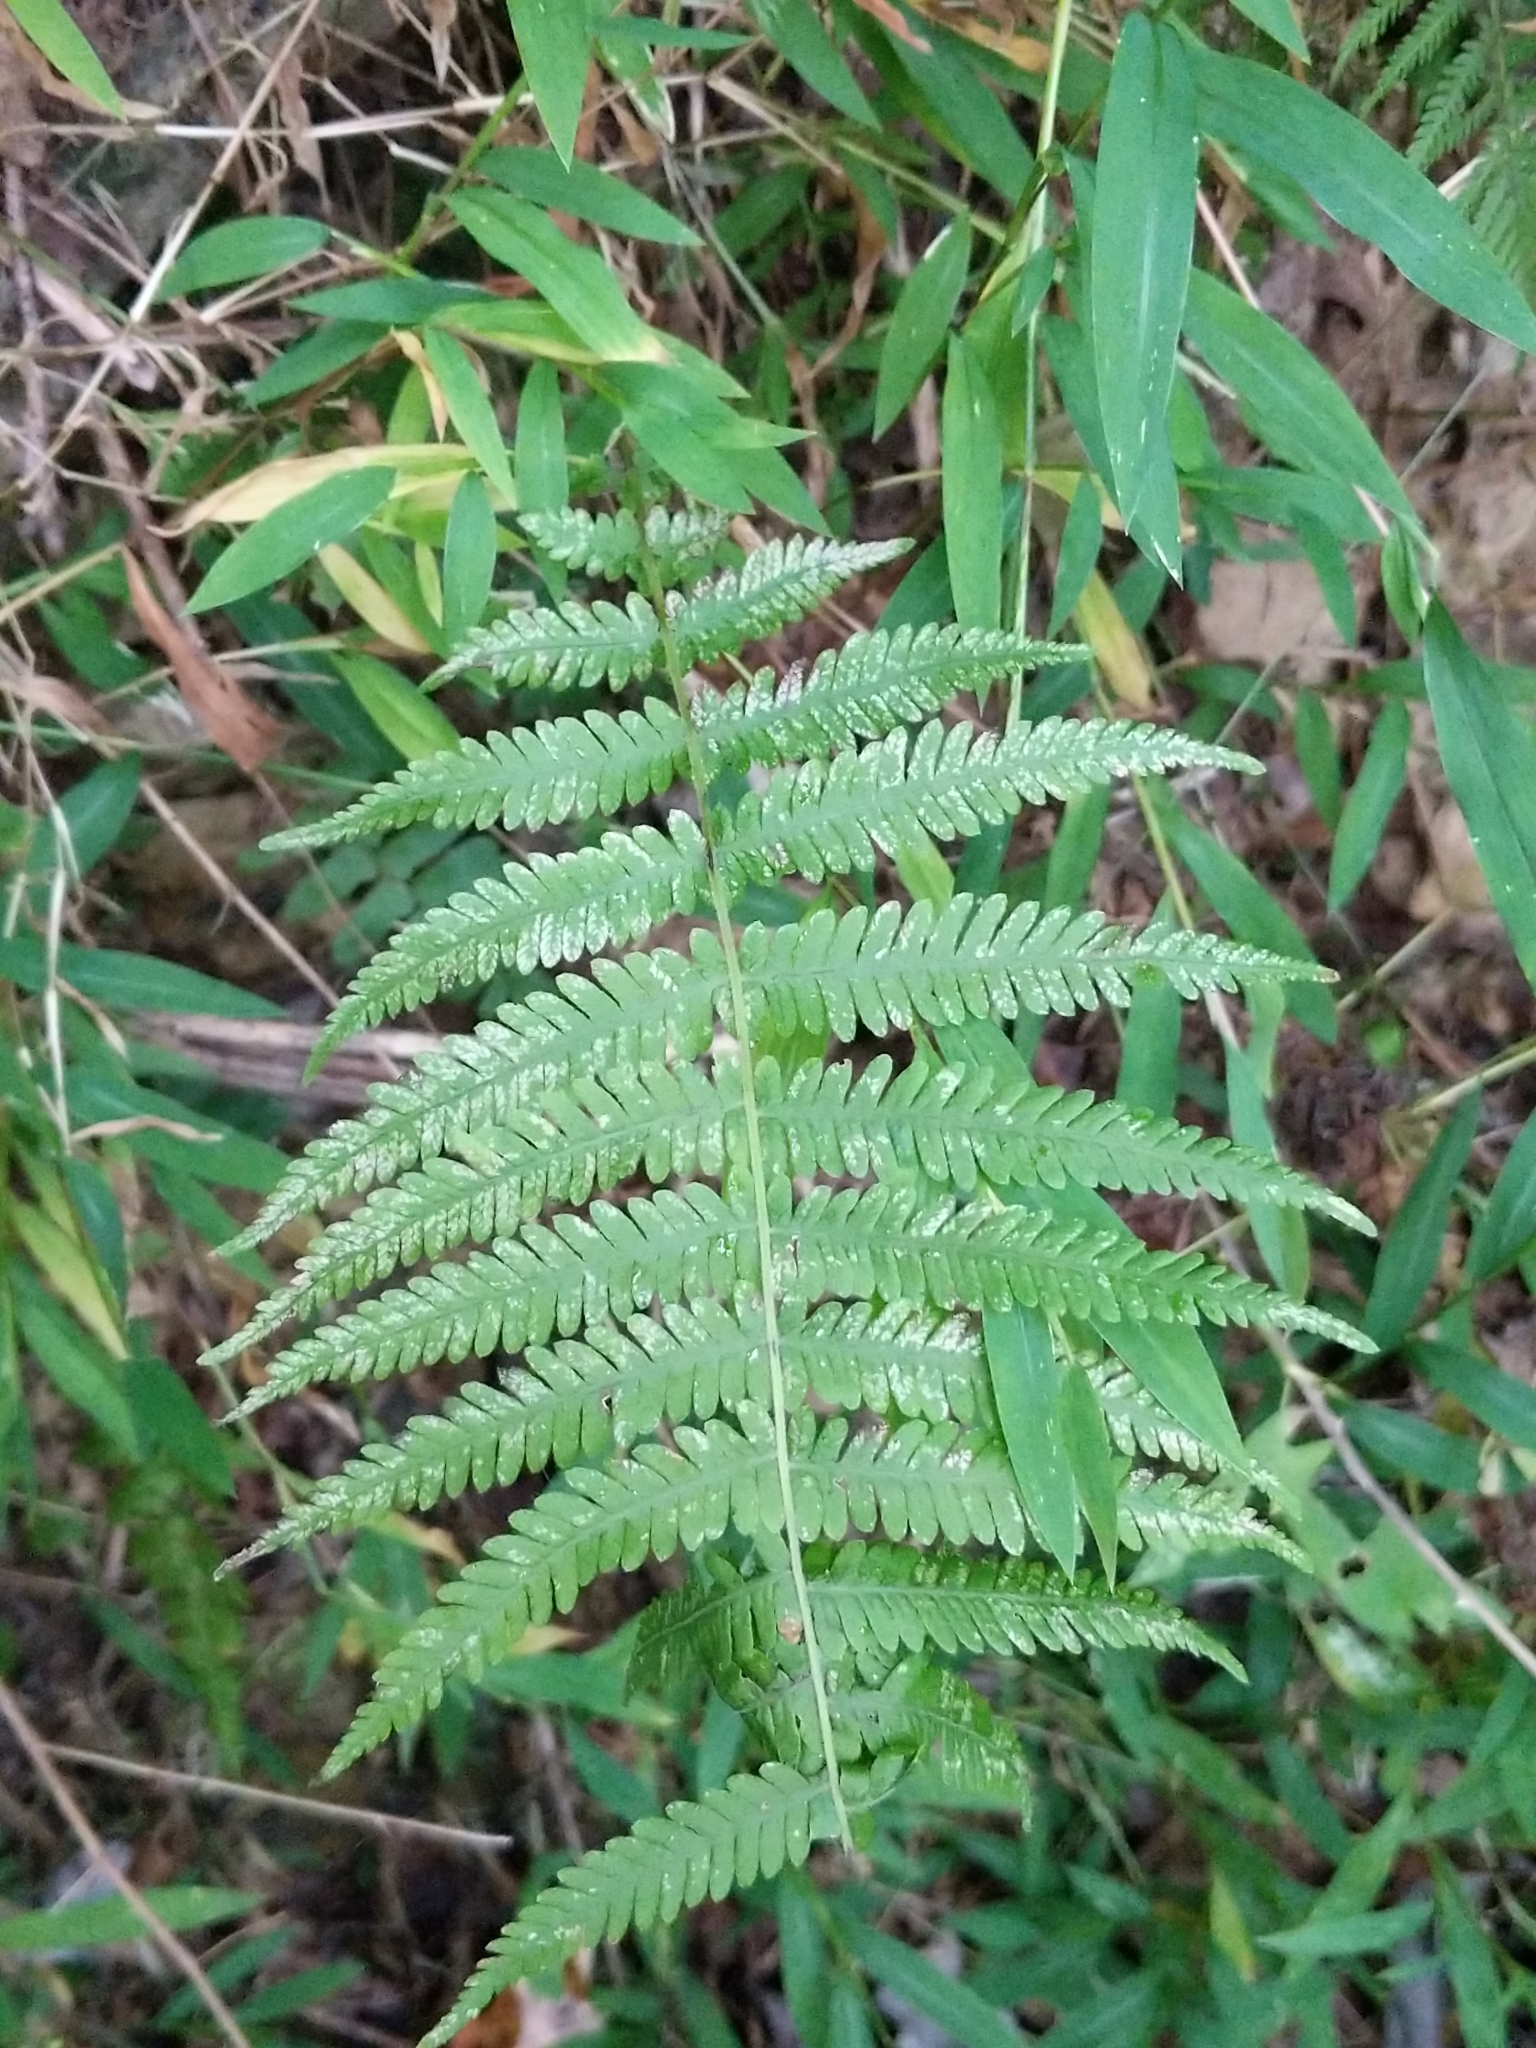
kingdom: Plantae
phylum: Tracheophyta
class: Polypodiopsida
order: Polypodiales
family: Thelypteridaceae
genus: Amauropelta
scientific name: Amauropelta noveboracensis
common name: New york fern
